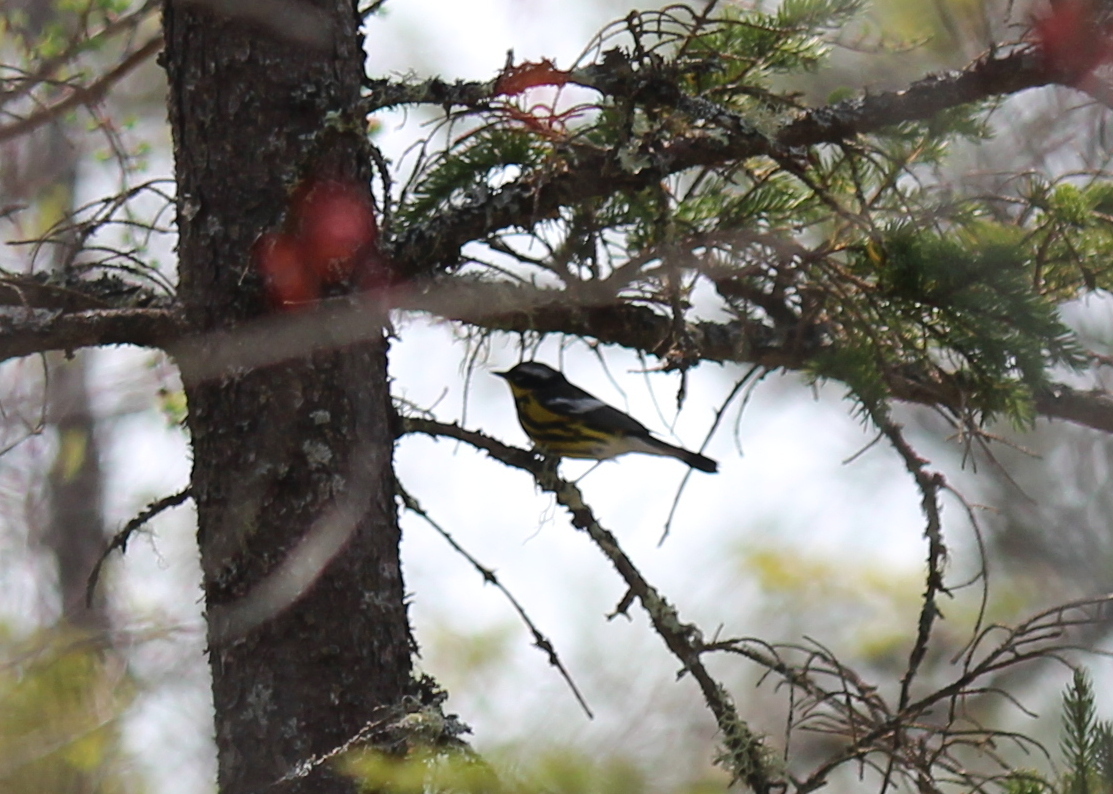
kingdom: Animalia
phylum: Chordata
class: Aves
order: Passeriformes
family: Parulidae
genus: Setophaga
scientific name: Setophaga magnolia
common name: Magnolia warbler
